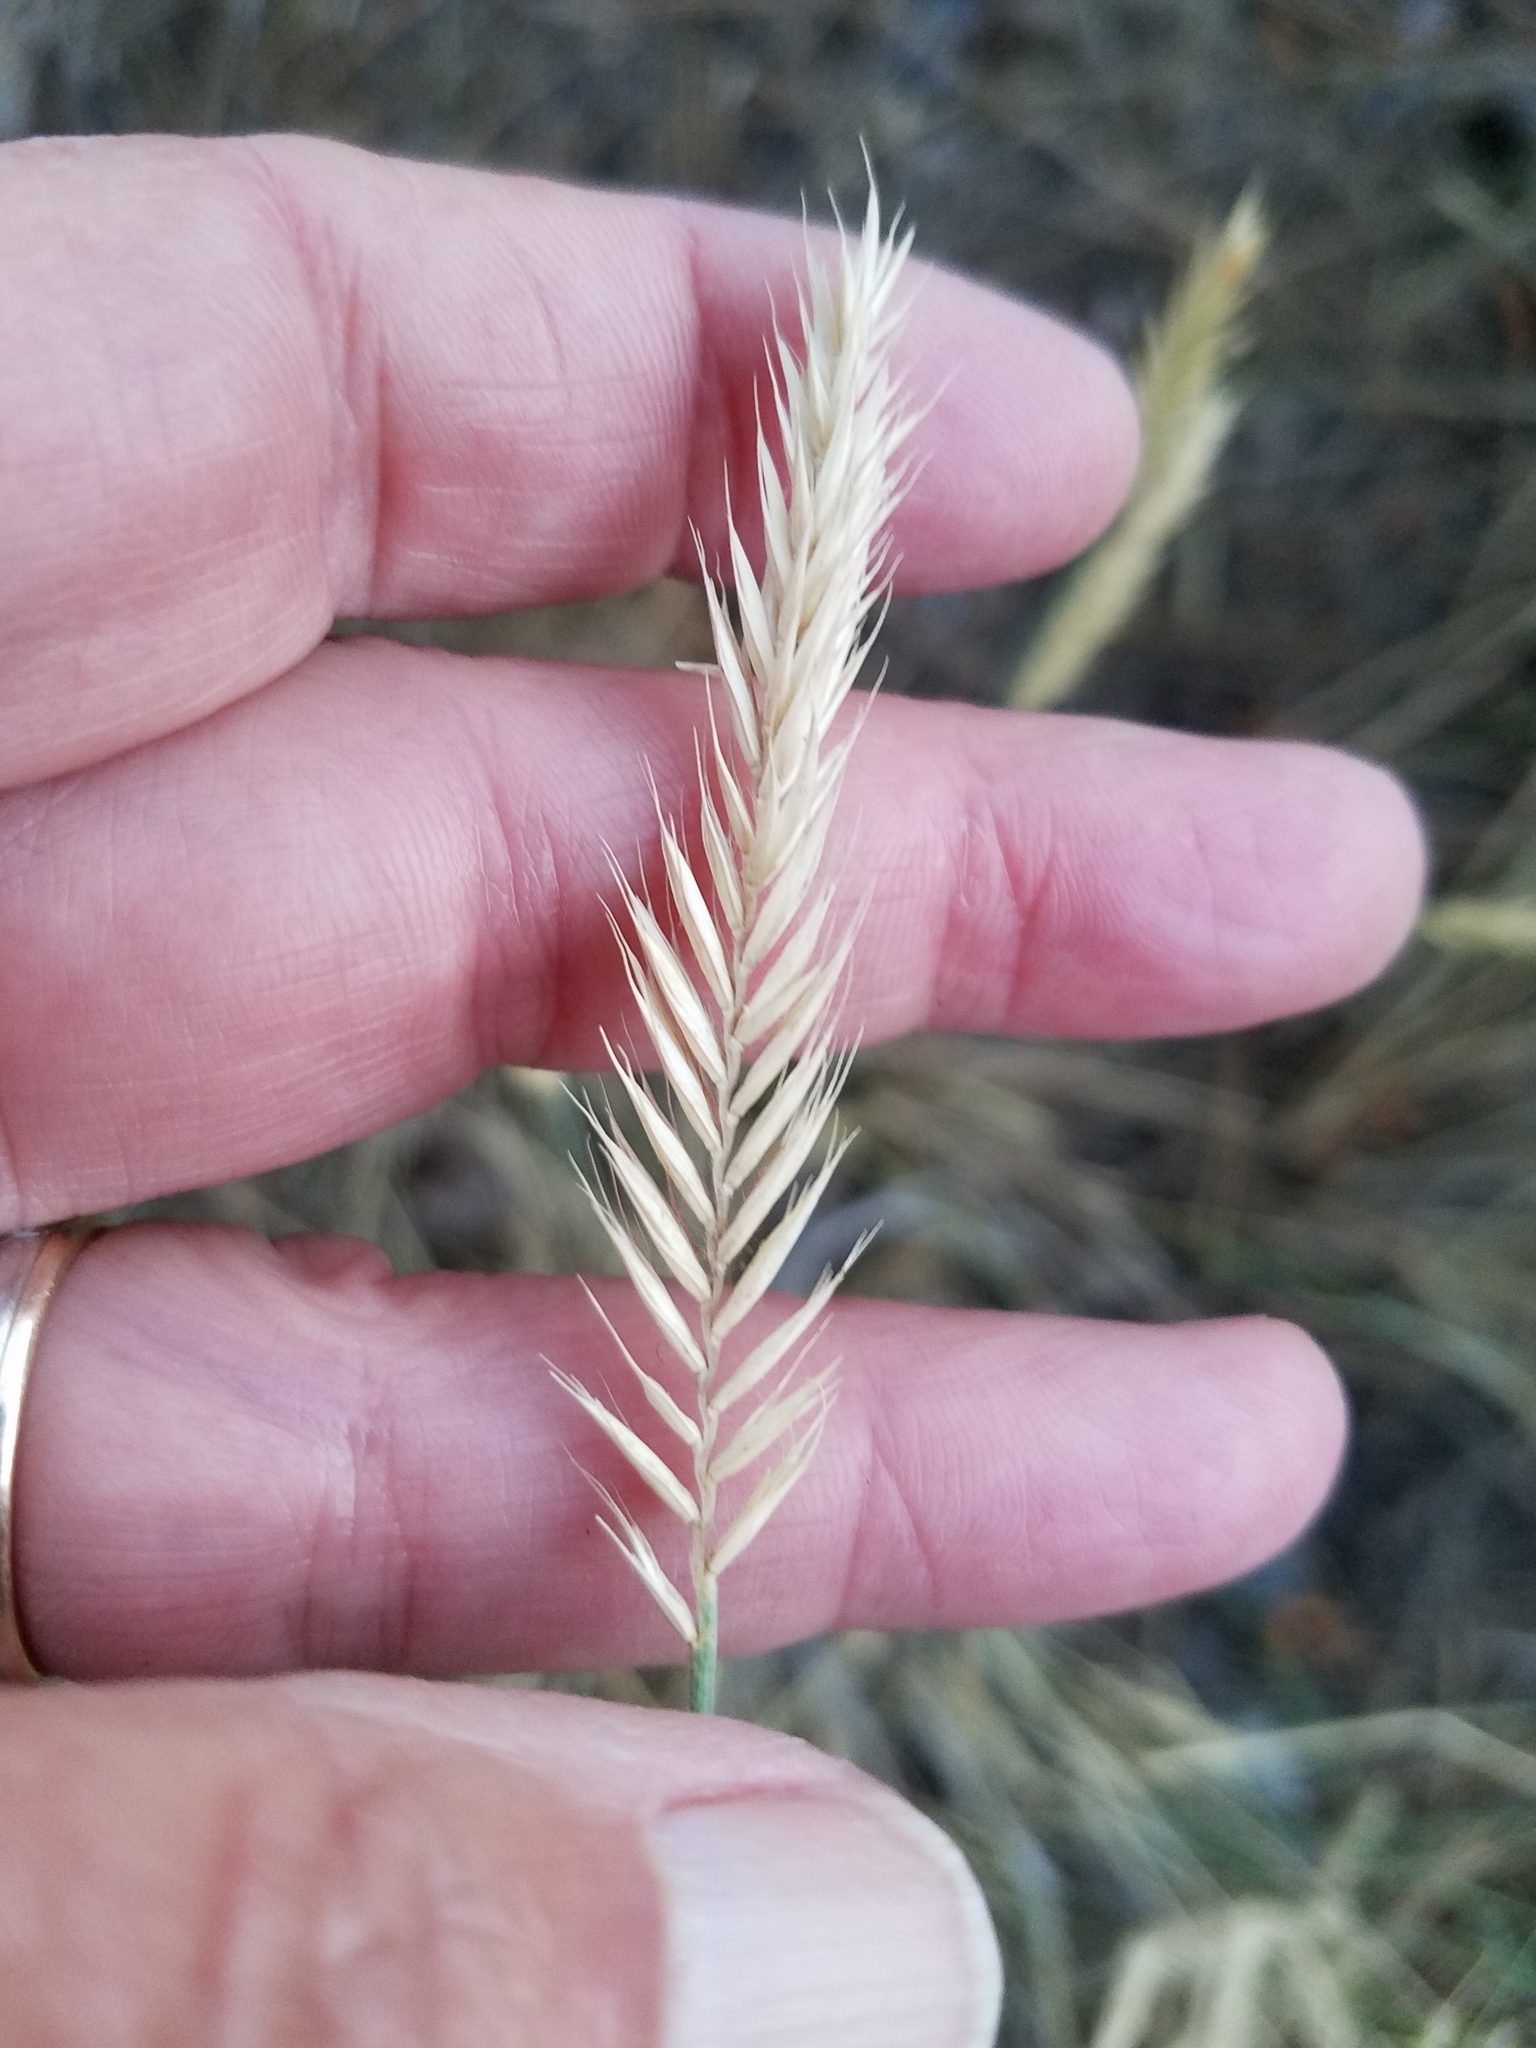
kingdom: Plantae
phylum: Tracheophyta
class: Liliopsida
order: Poales
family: Poaceae
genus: Agropyron
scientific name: Agropyron cristatum
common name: Crested wheatgrass
